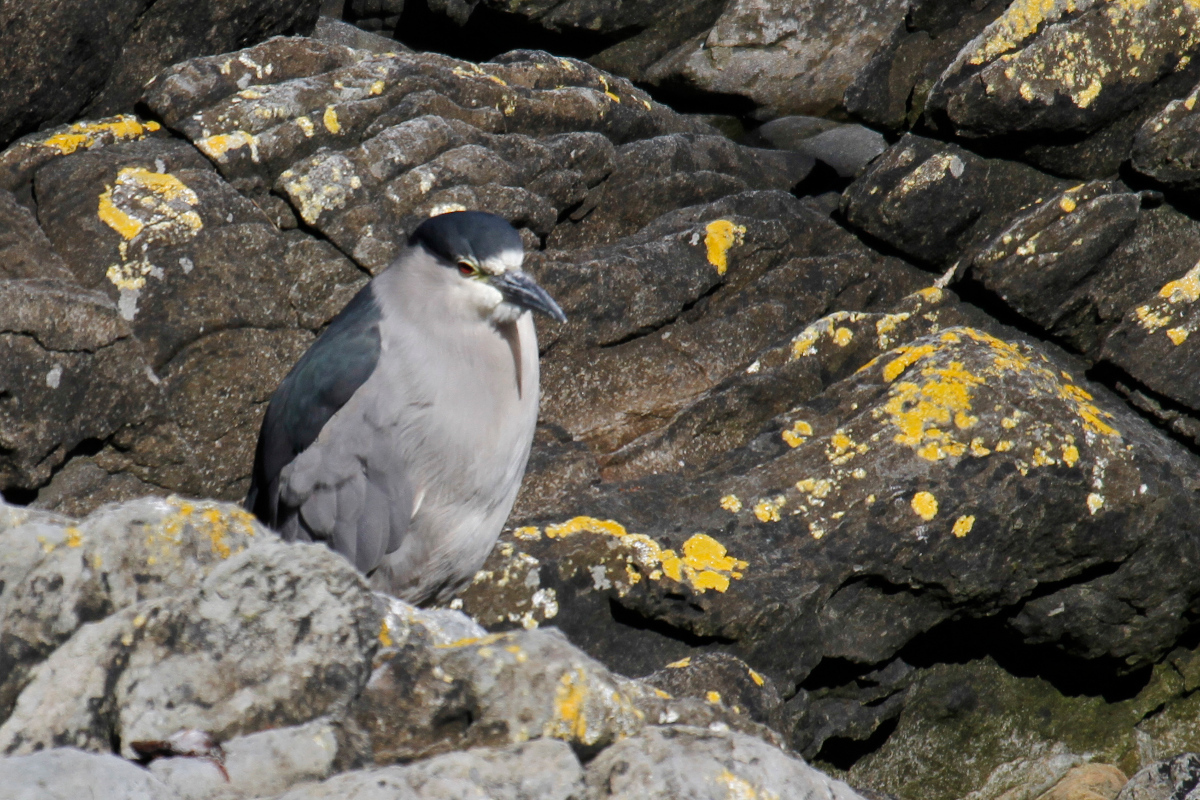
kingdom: Animalia
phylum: Chordata
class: Aves
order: Pelecaniformes
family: Ardeidae
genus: Nycticorax
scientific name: Nycticorax nycticorax
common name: Black-crowned night heron
